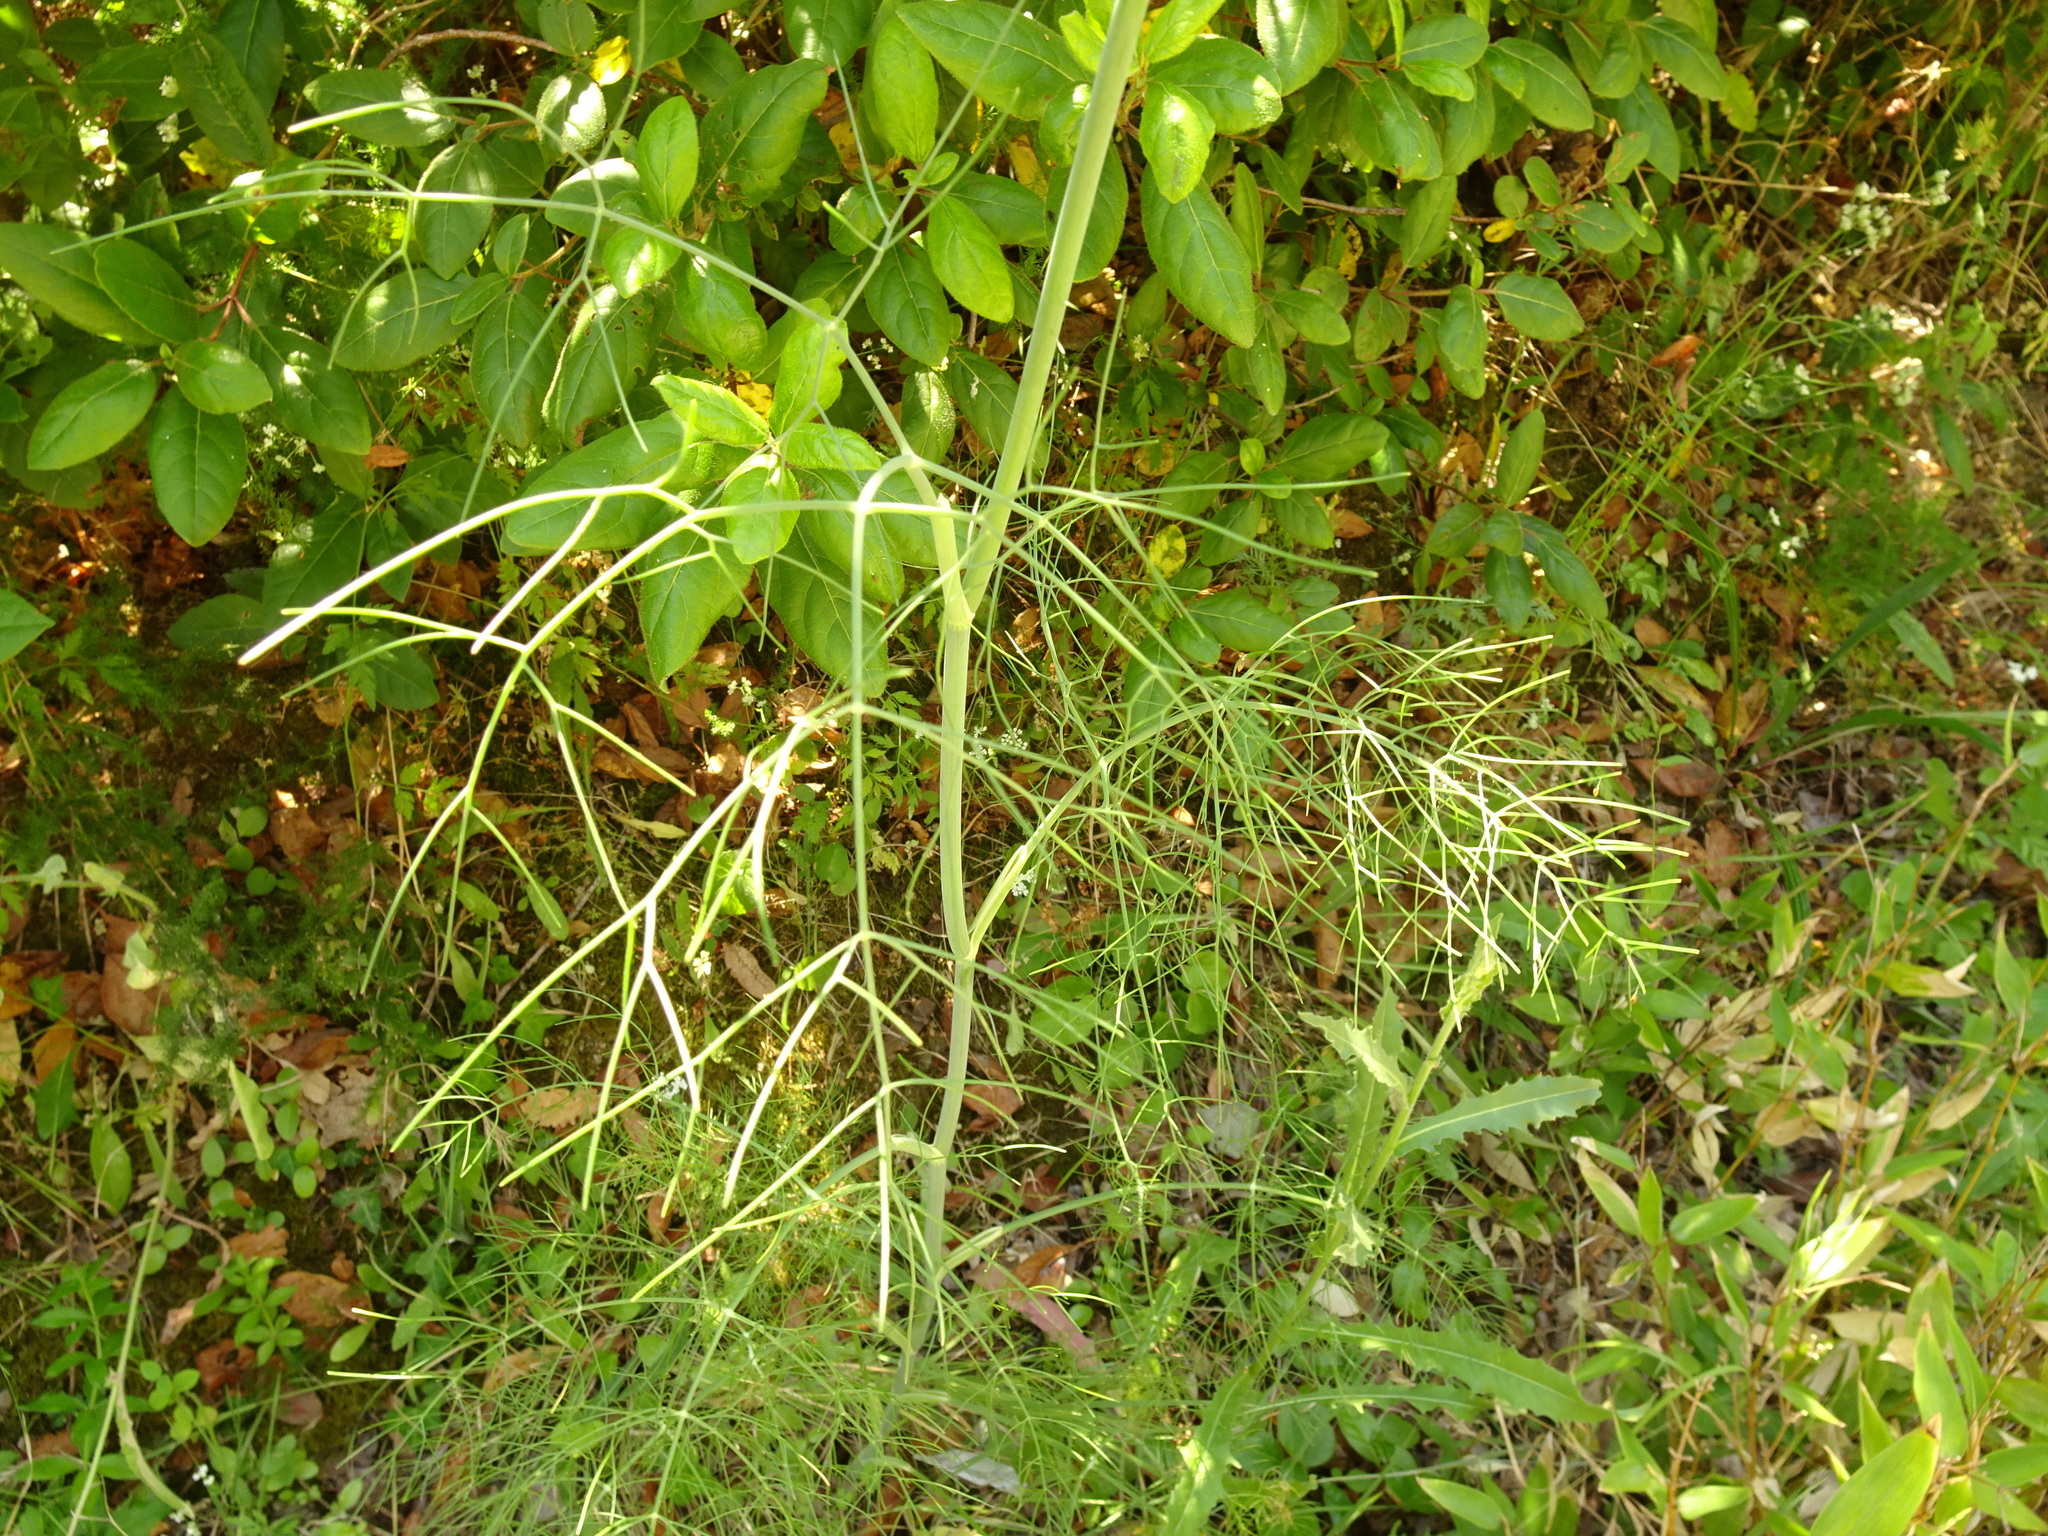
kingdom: Plantae
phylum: Tracheophyta
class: Magnoliopsida
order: Apiales
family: Apiaceae
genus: Foeniculum
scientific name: Foeniculum vulgare
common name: Fennel
